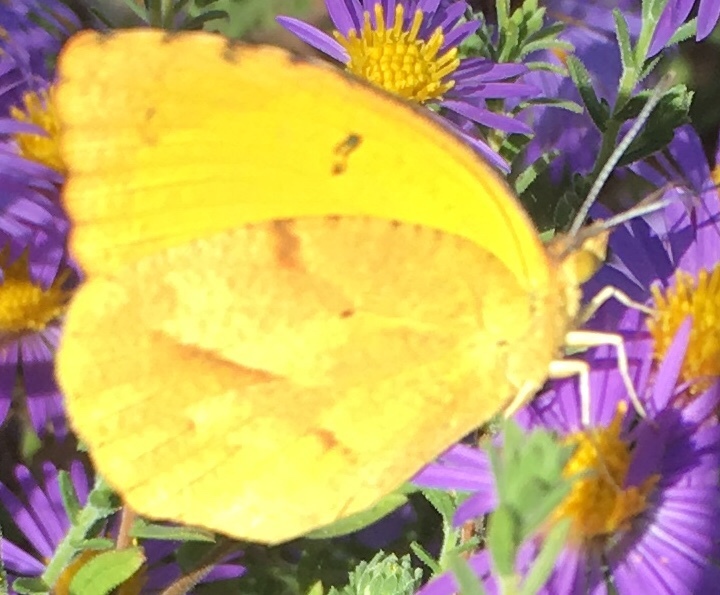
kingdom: Animalia
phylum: Arthropoda
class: Insecta
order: Lepidoptera
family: Pieridae
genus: Abaeis
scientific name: Abaeis nicippe
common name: Sleepy orange
